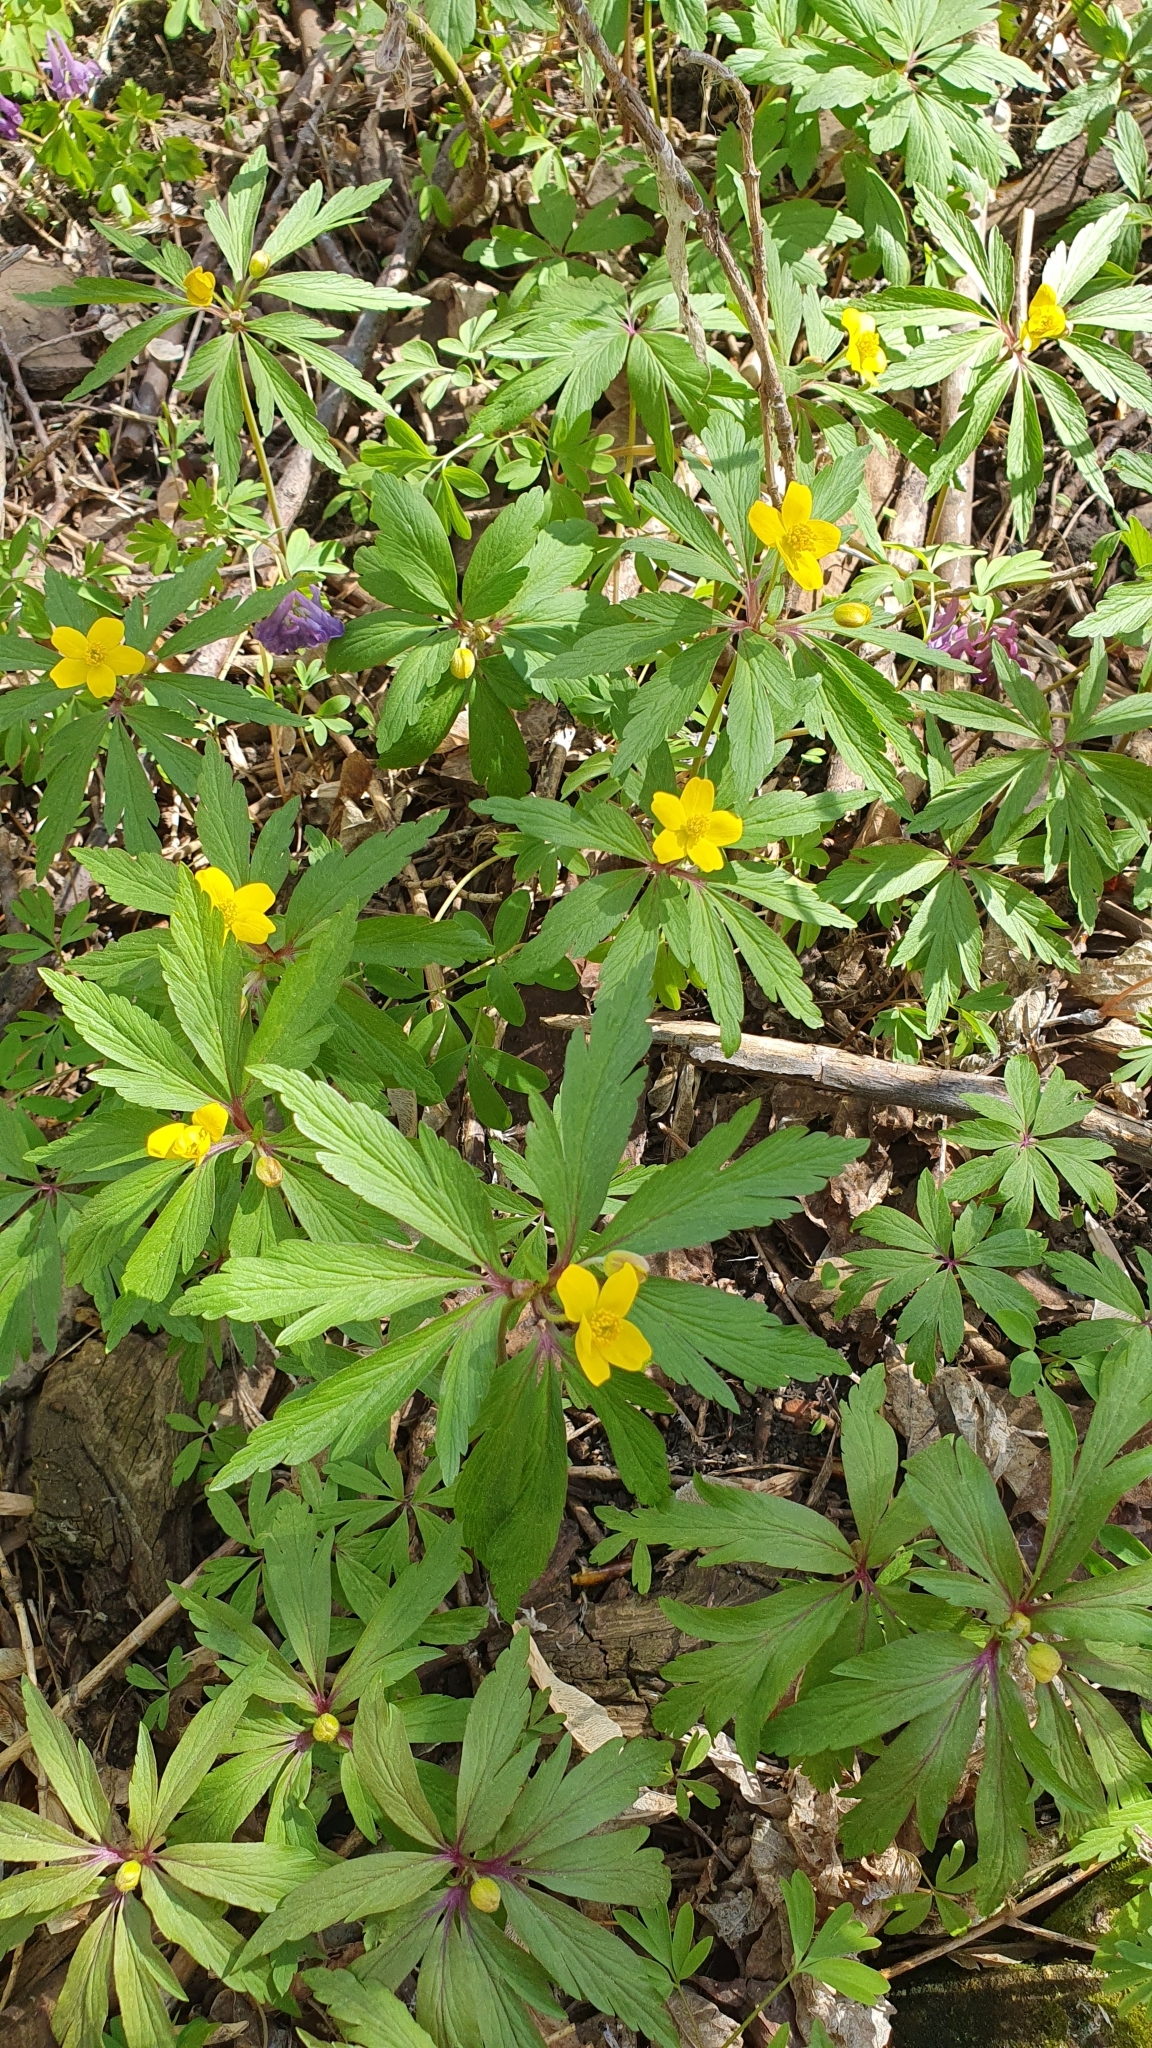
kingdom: Plantae
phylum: Tracheophyta
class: Magnoliopsida
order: Ranunculales
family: Ranunculaceae
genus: Anemone
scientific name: Anemone ranunculoides
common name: Yellow anemone
